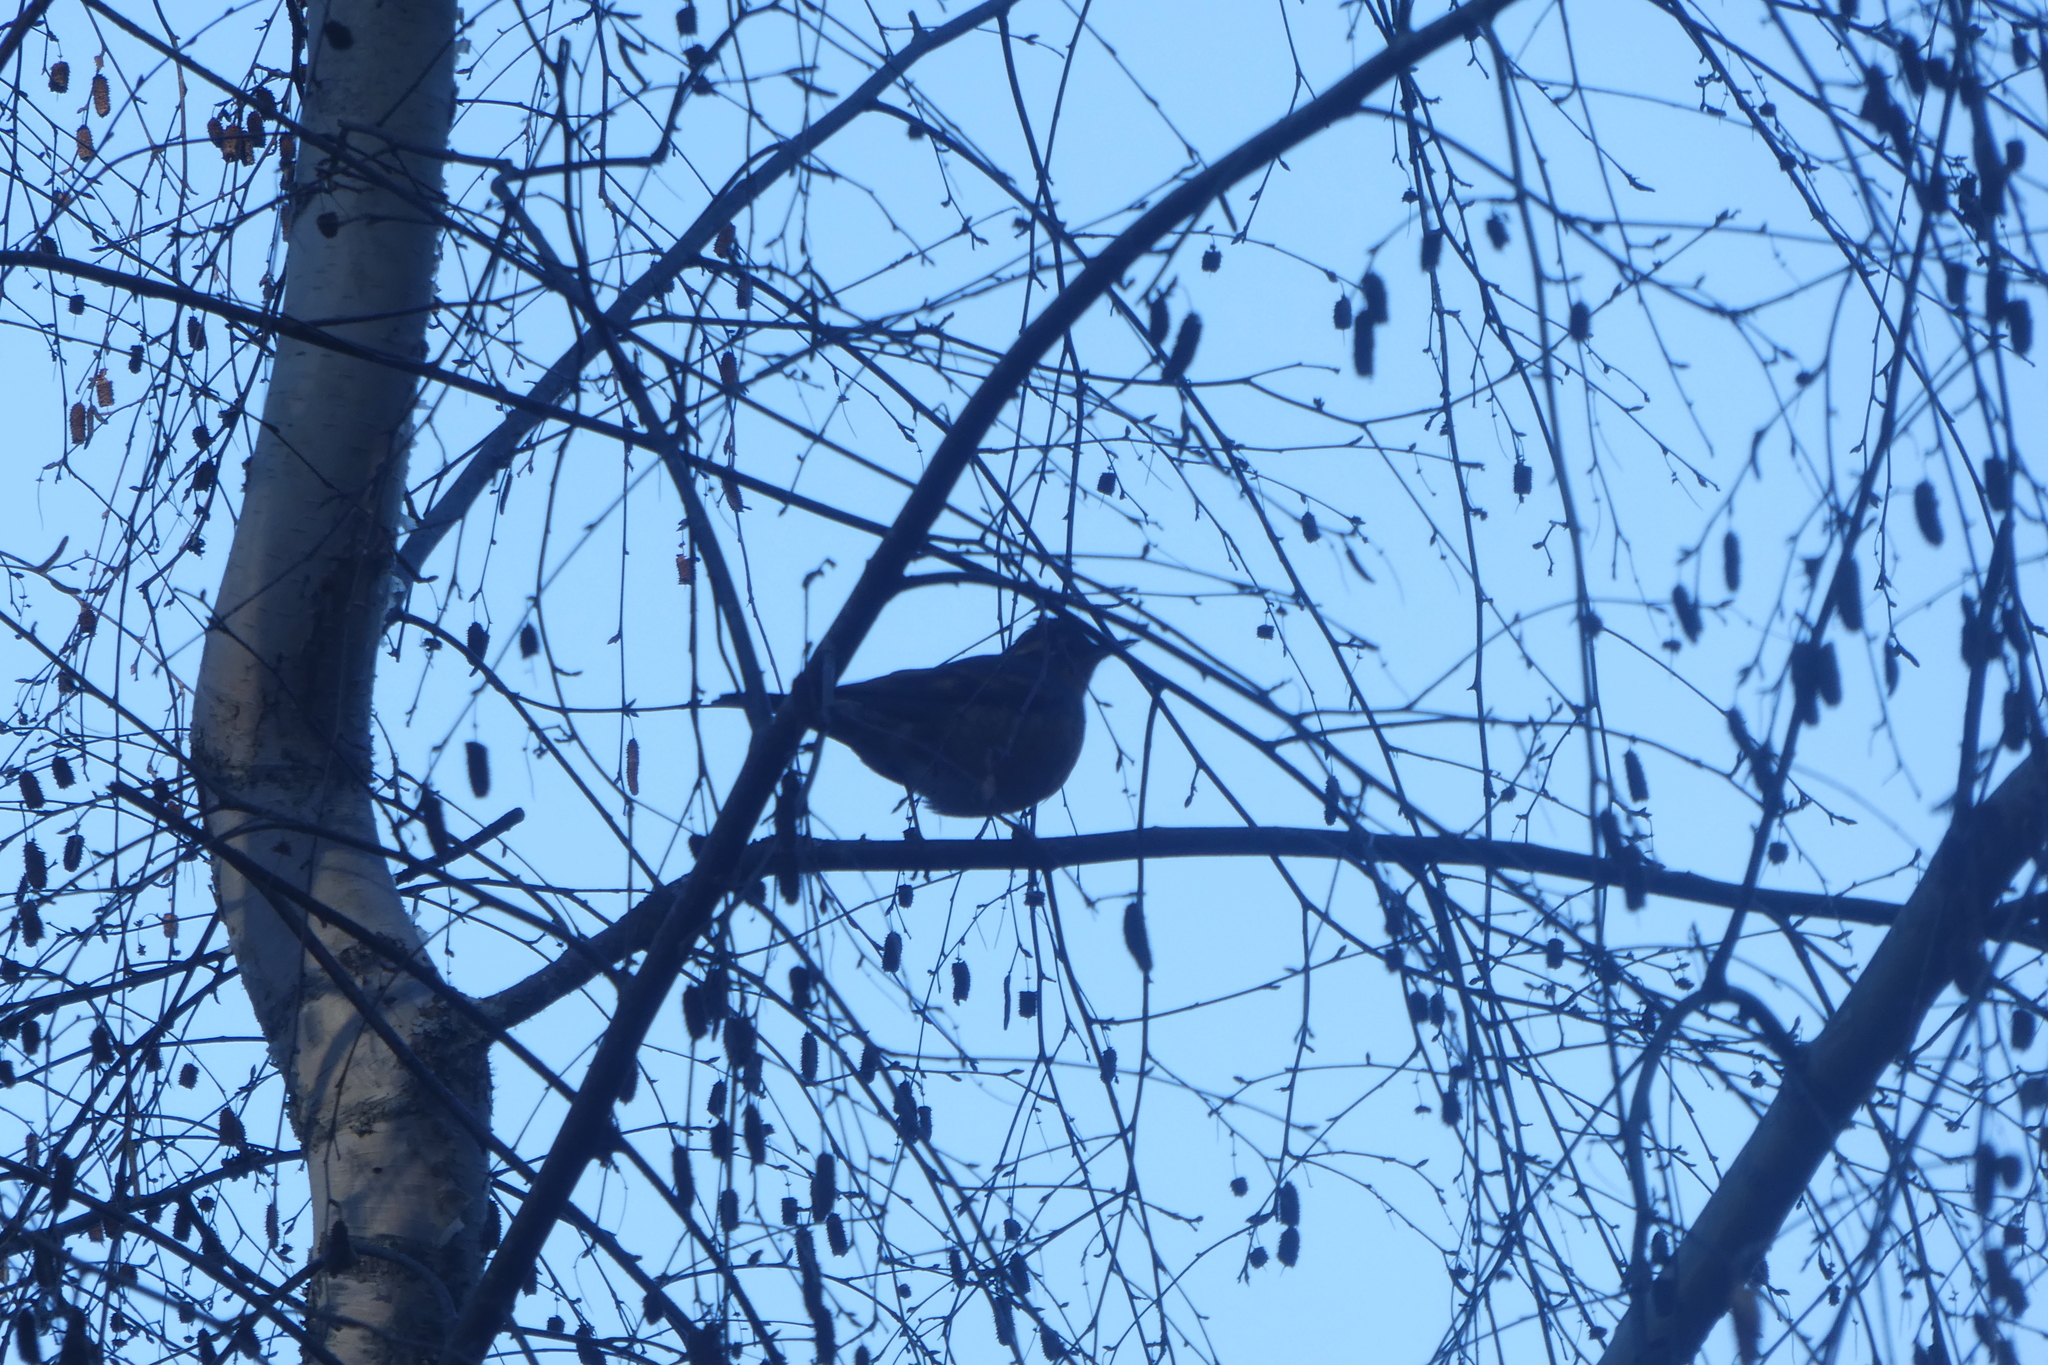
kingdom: Animalia
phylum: Chordata
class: Aves
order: Passeriformes
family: Turdidae
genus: Ixoreus
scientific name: Ixoreus naevius
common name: Varied thrush
